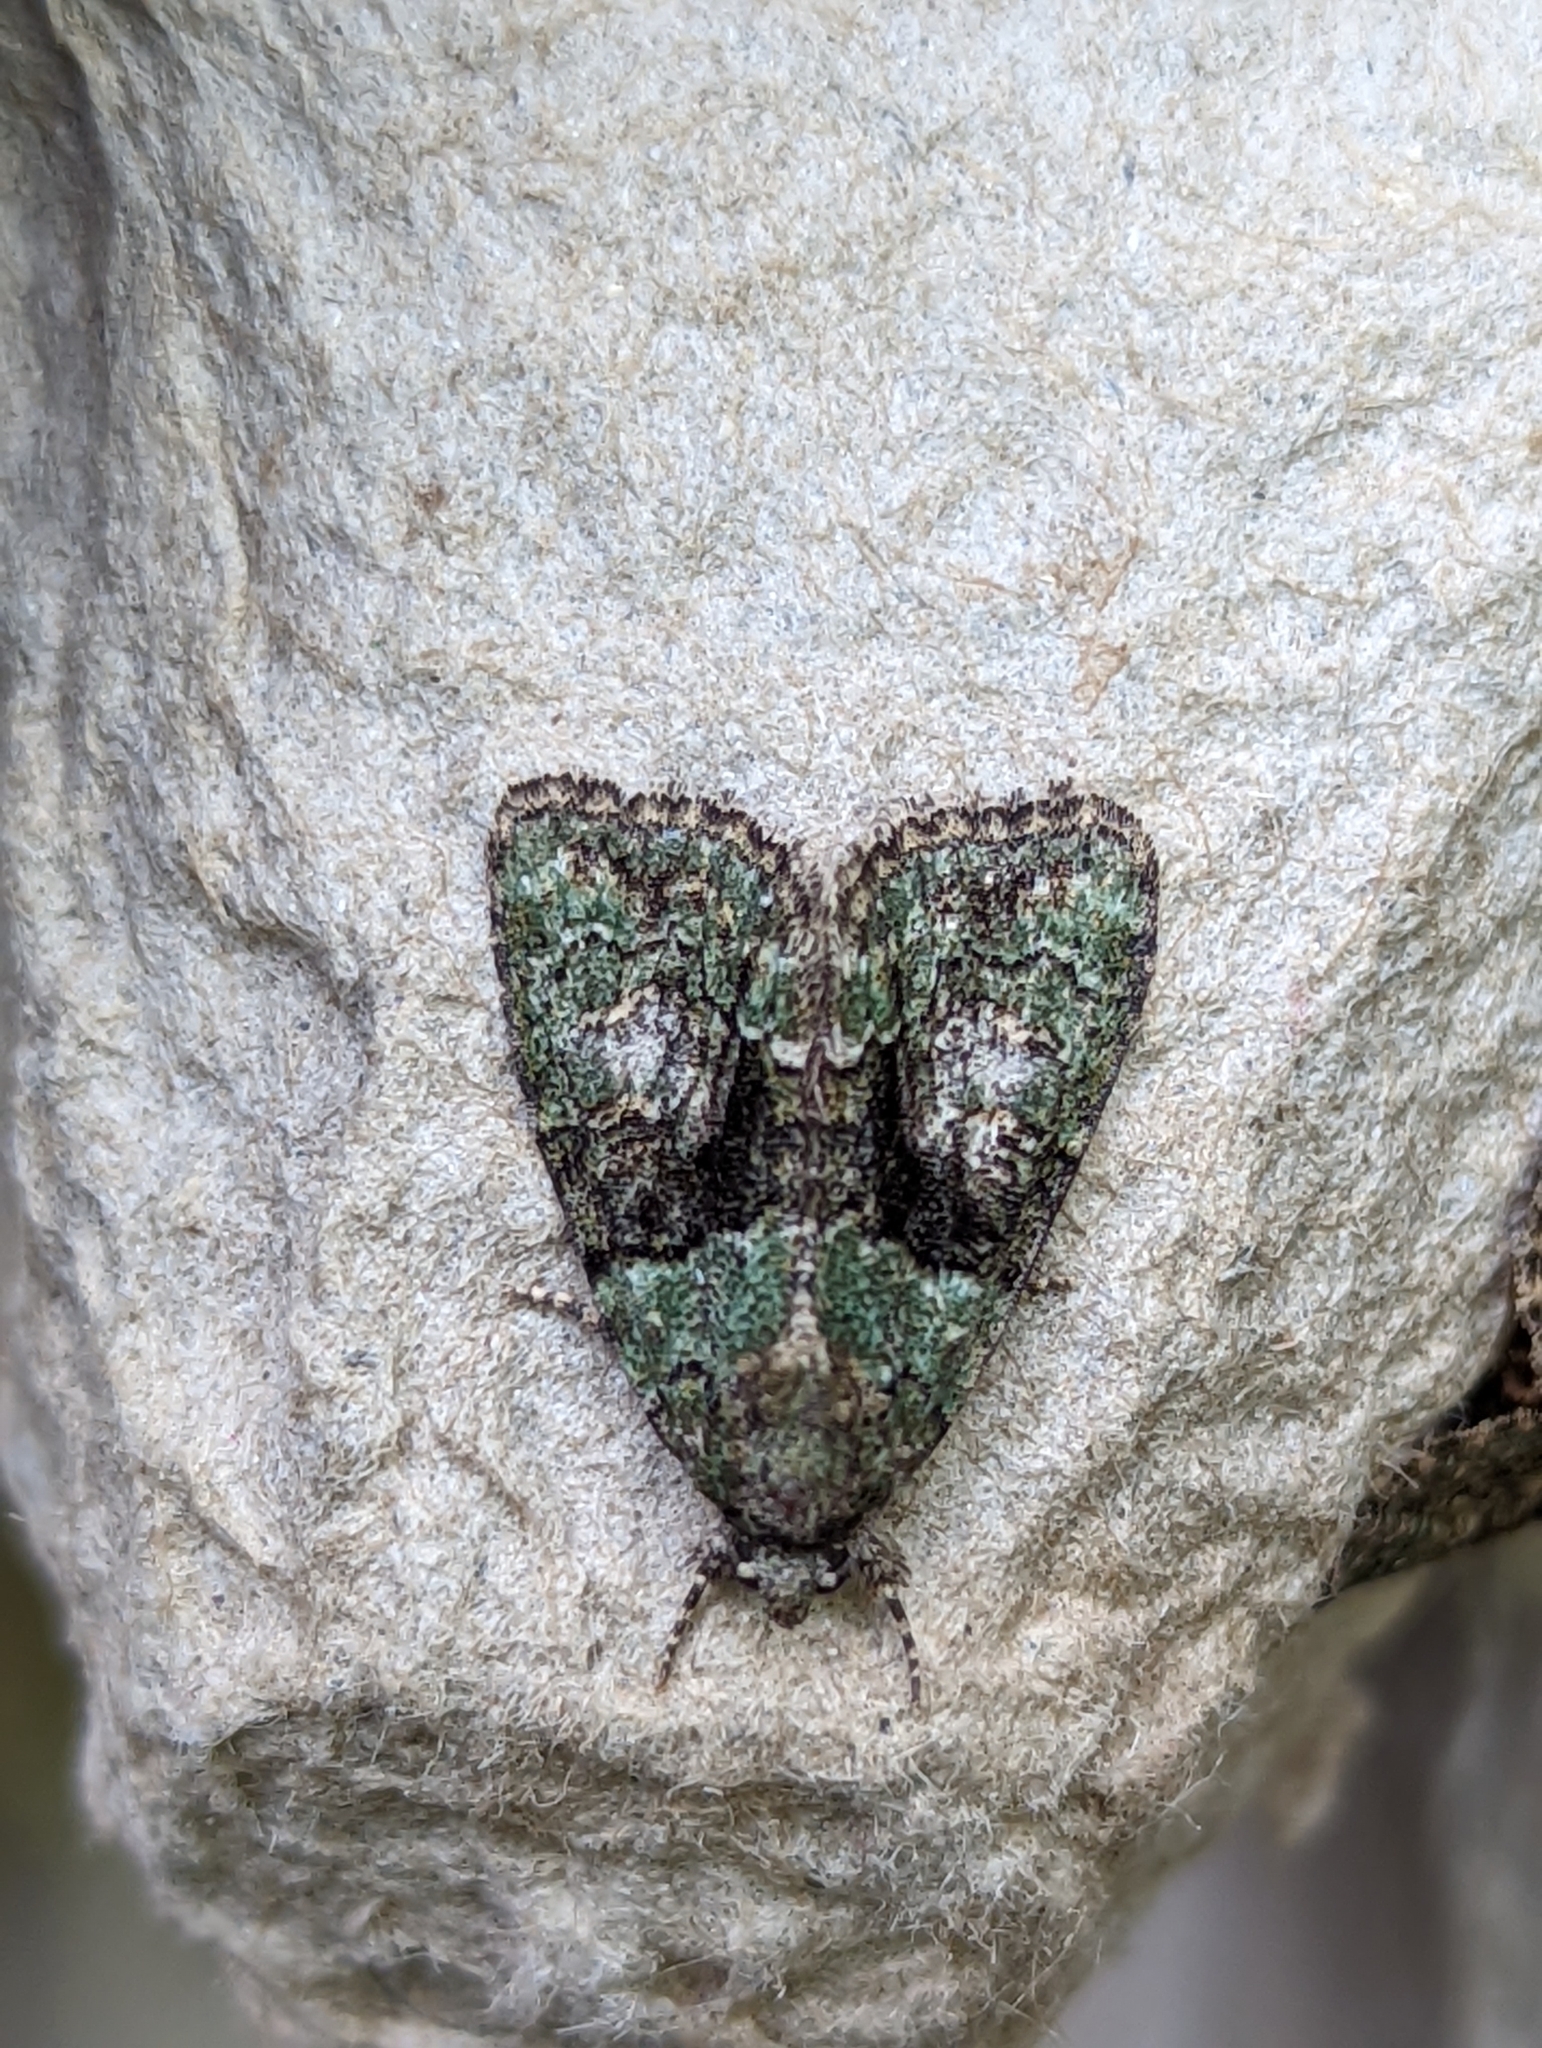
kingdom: Animalia
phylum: Arthropoda
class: Insecta
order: Lepidoptera
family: Noctuidae
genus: Cryphia
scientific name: Cryphia algae
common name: Tree-lichen beauty
